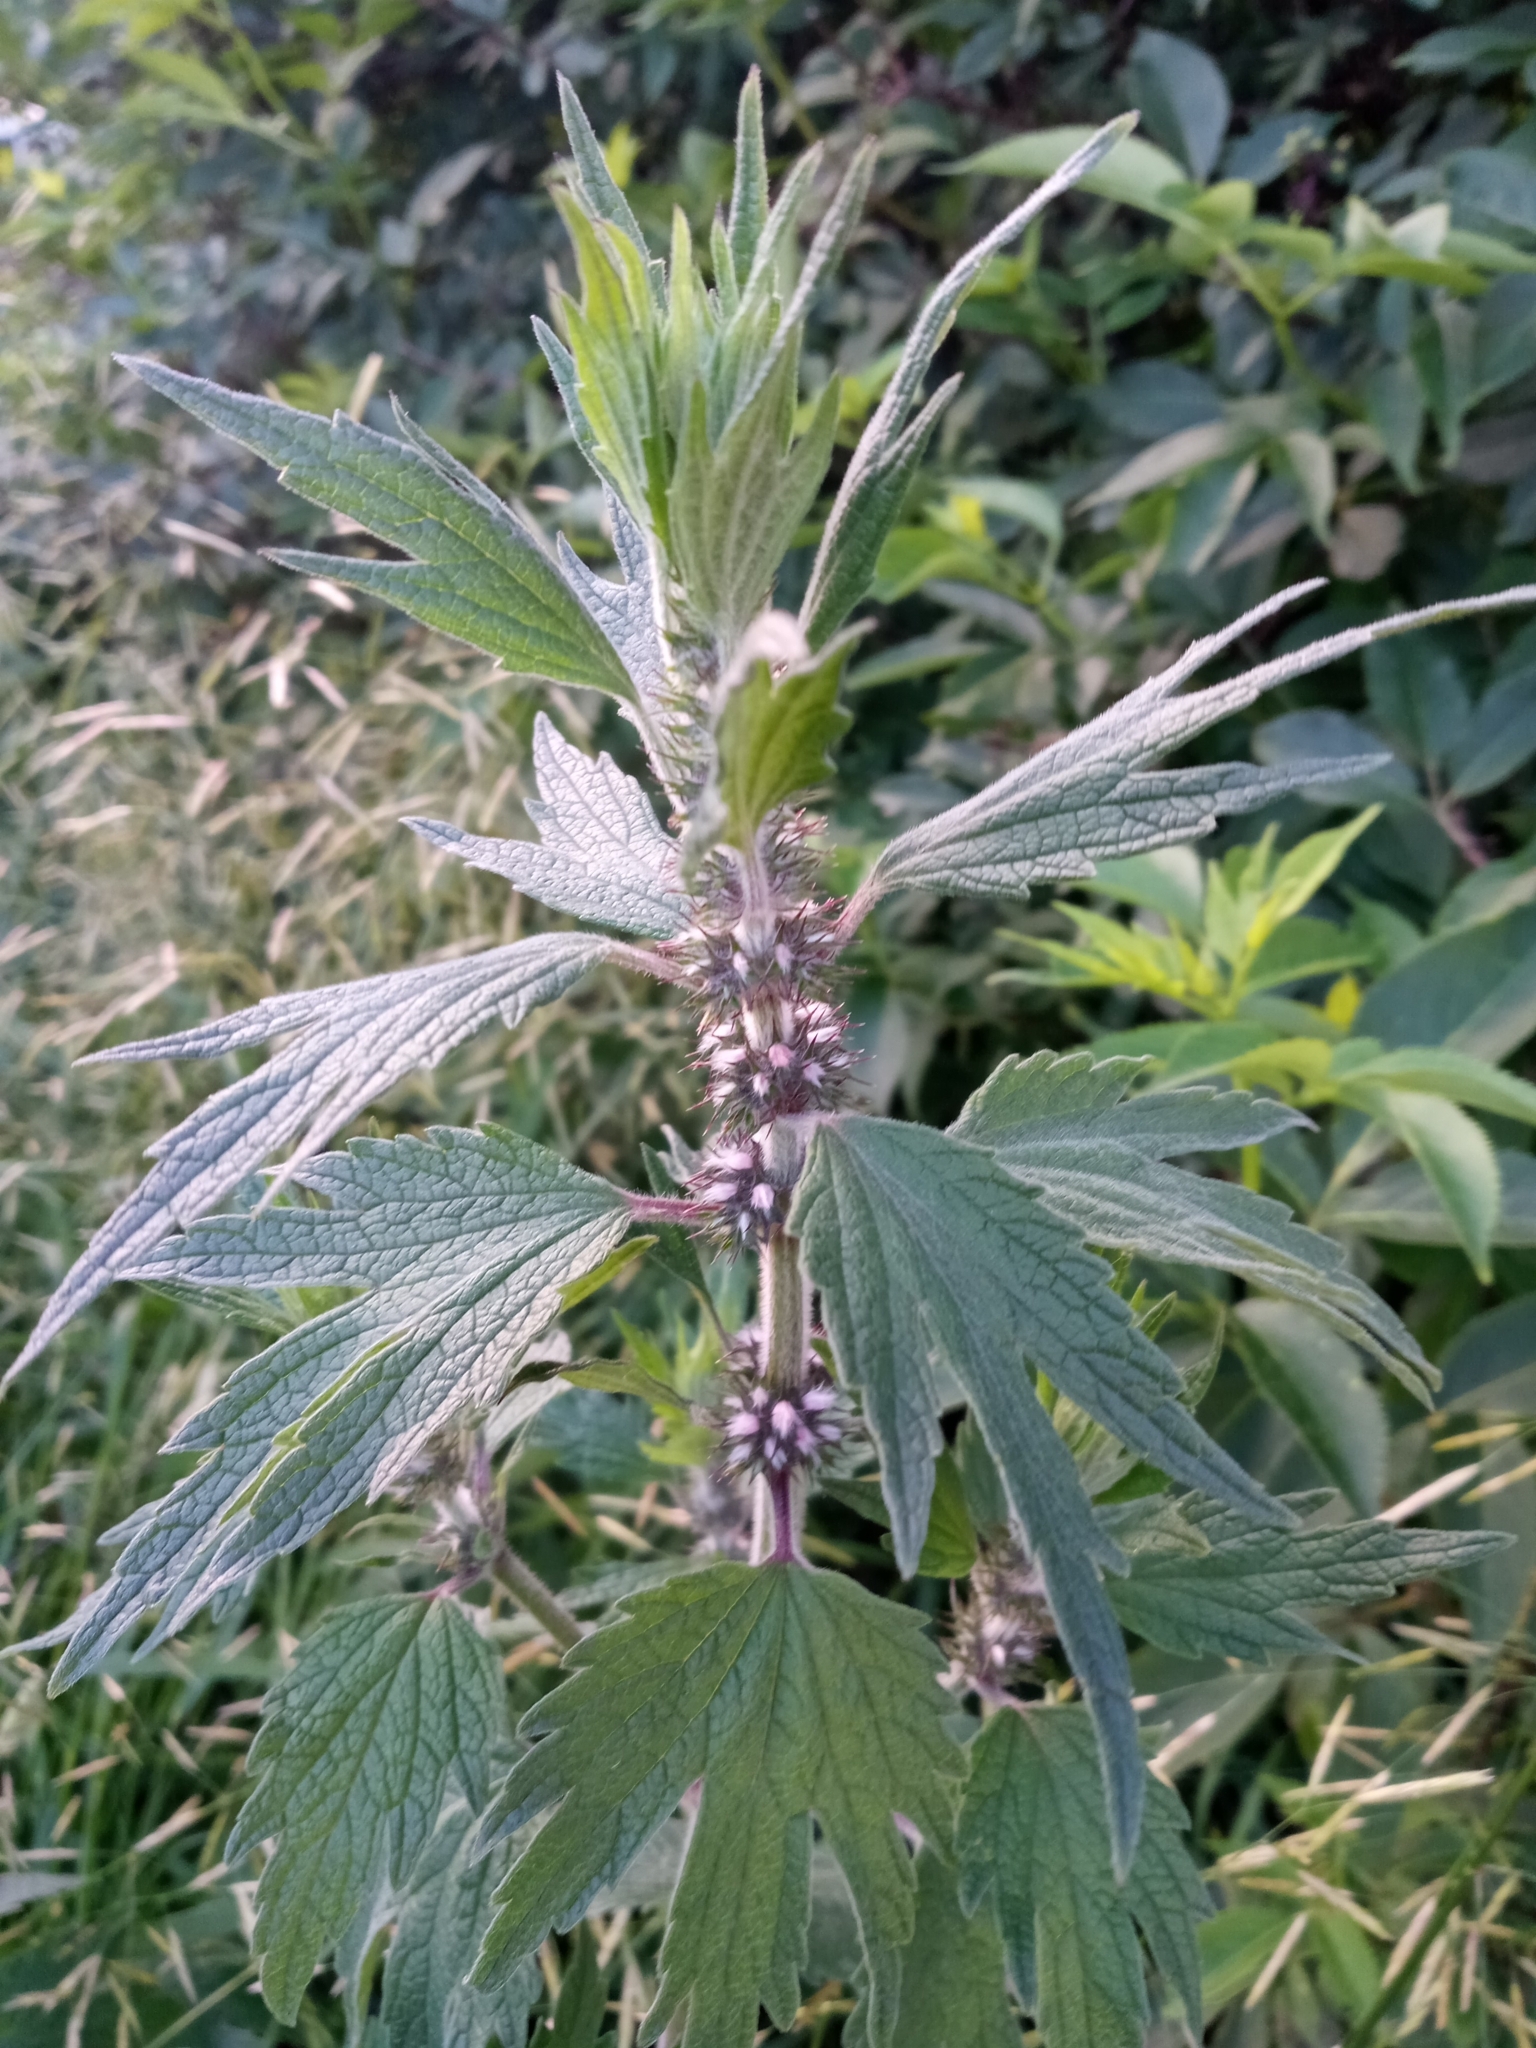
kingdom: Plantae
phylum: Tracheophyta
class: Magnoliopsida
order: Lamiales
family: Lamiaceae
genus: Leonurus
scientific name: Leonurus quinquelobatus
